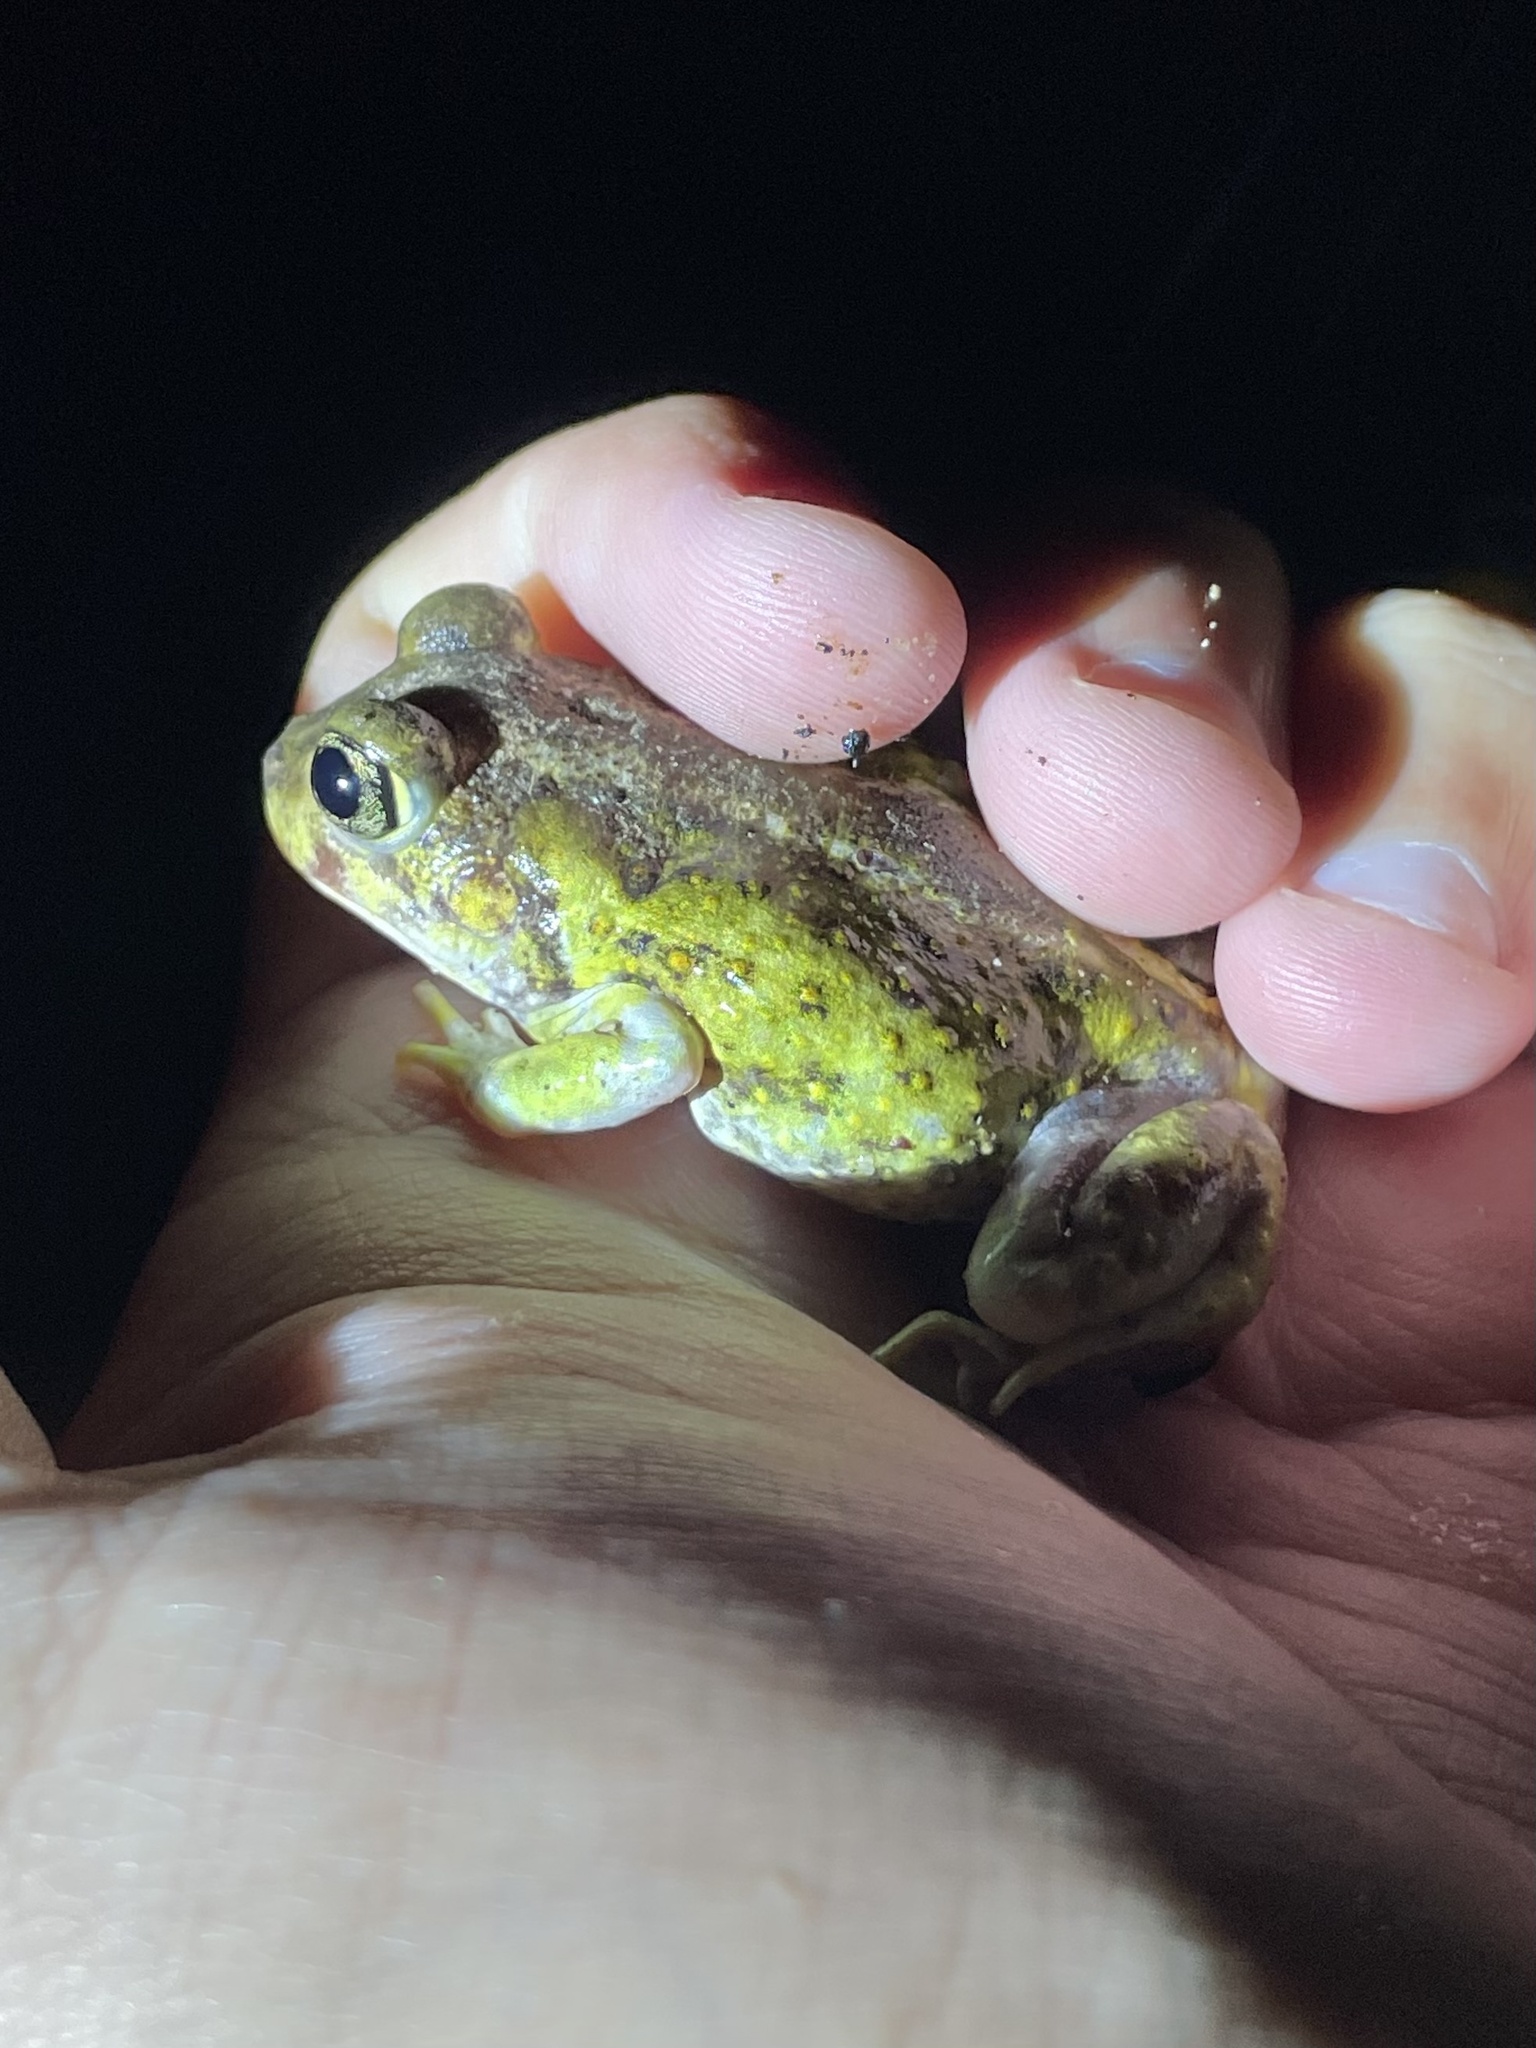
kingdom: Animalia
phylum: Chordata
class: Amphibia
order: Anura
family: Scaphiopodidae
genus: Scaphiopus
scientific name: Scaphiopus hurterii
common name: Hurter's spadefoot toad
